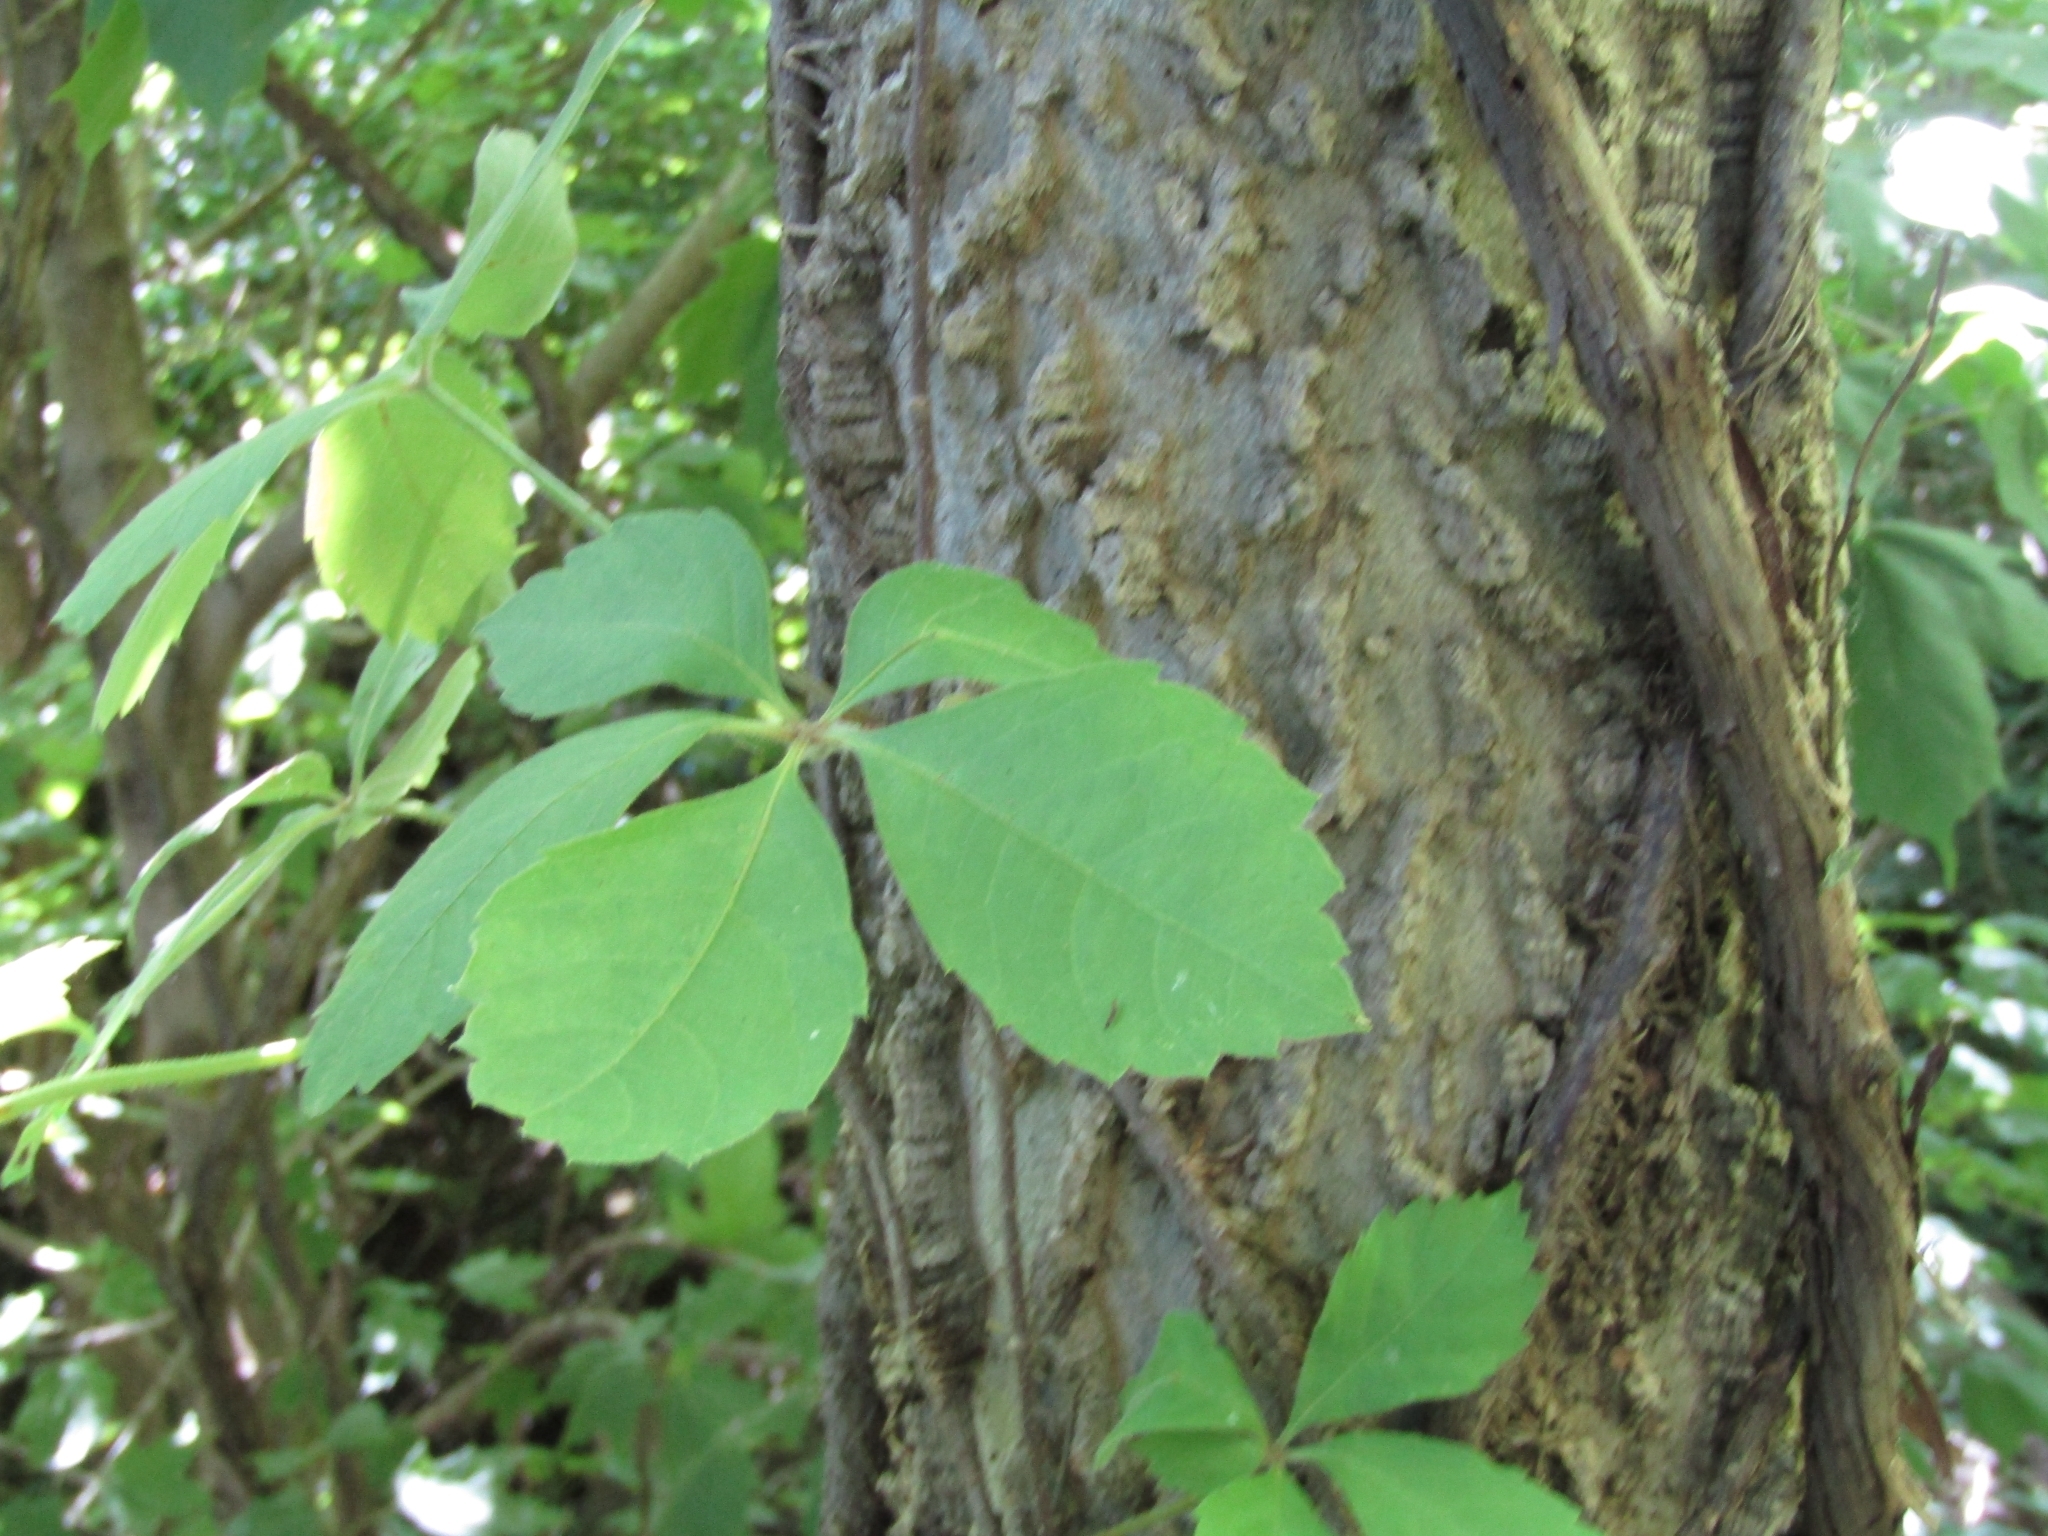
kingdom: Plantae
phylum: Tracheophyta
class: Magnoliopsida
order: Vitales
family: Vitaceae
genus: Parthenocissus
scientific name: Parthenocissus quinquefolia
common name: Virginia-creeper
